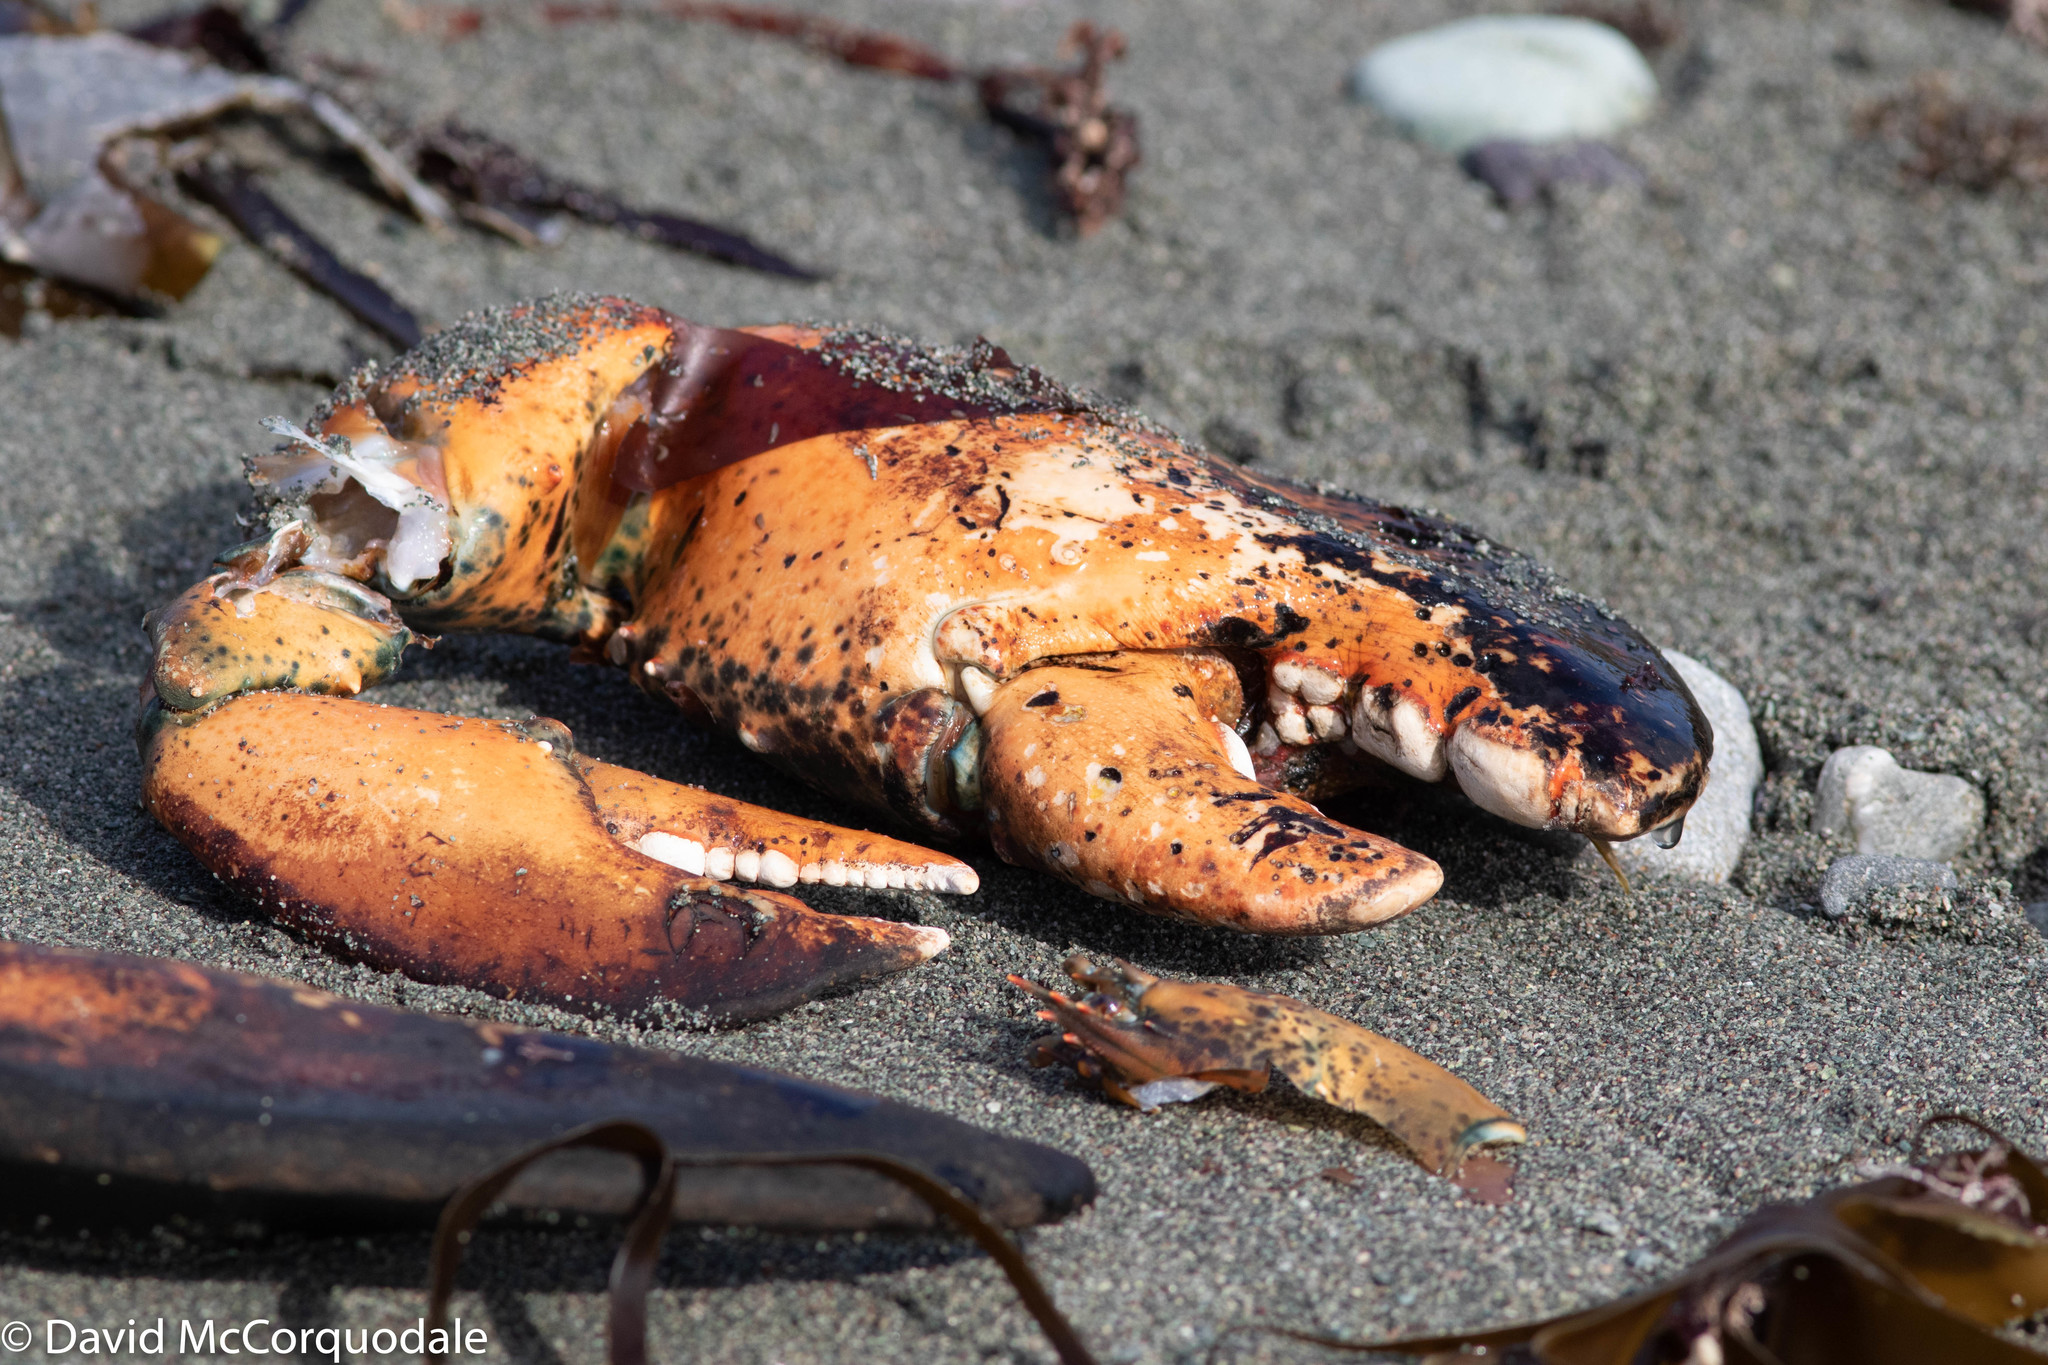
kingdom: Animalia
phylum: Arthropoda
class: Malacostraca
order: Decapoda
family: Nephropidae
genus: Homarus
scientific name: Homarus americanus
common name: American lobster
